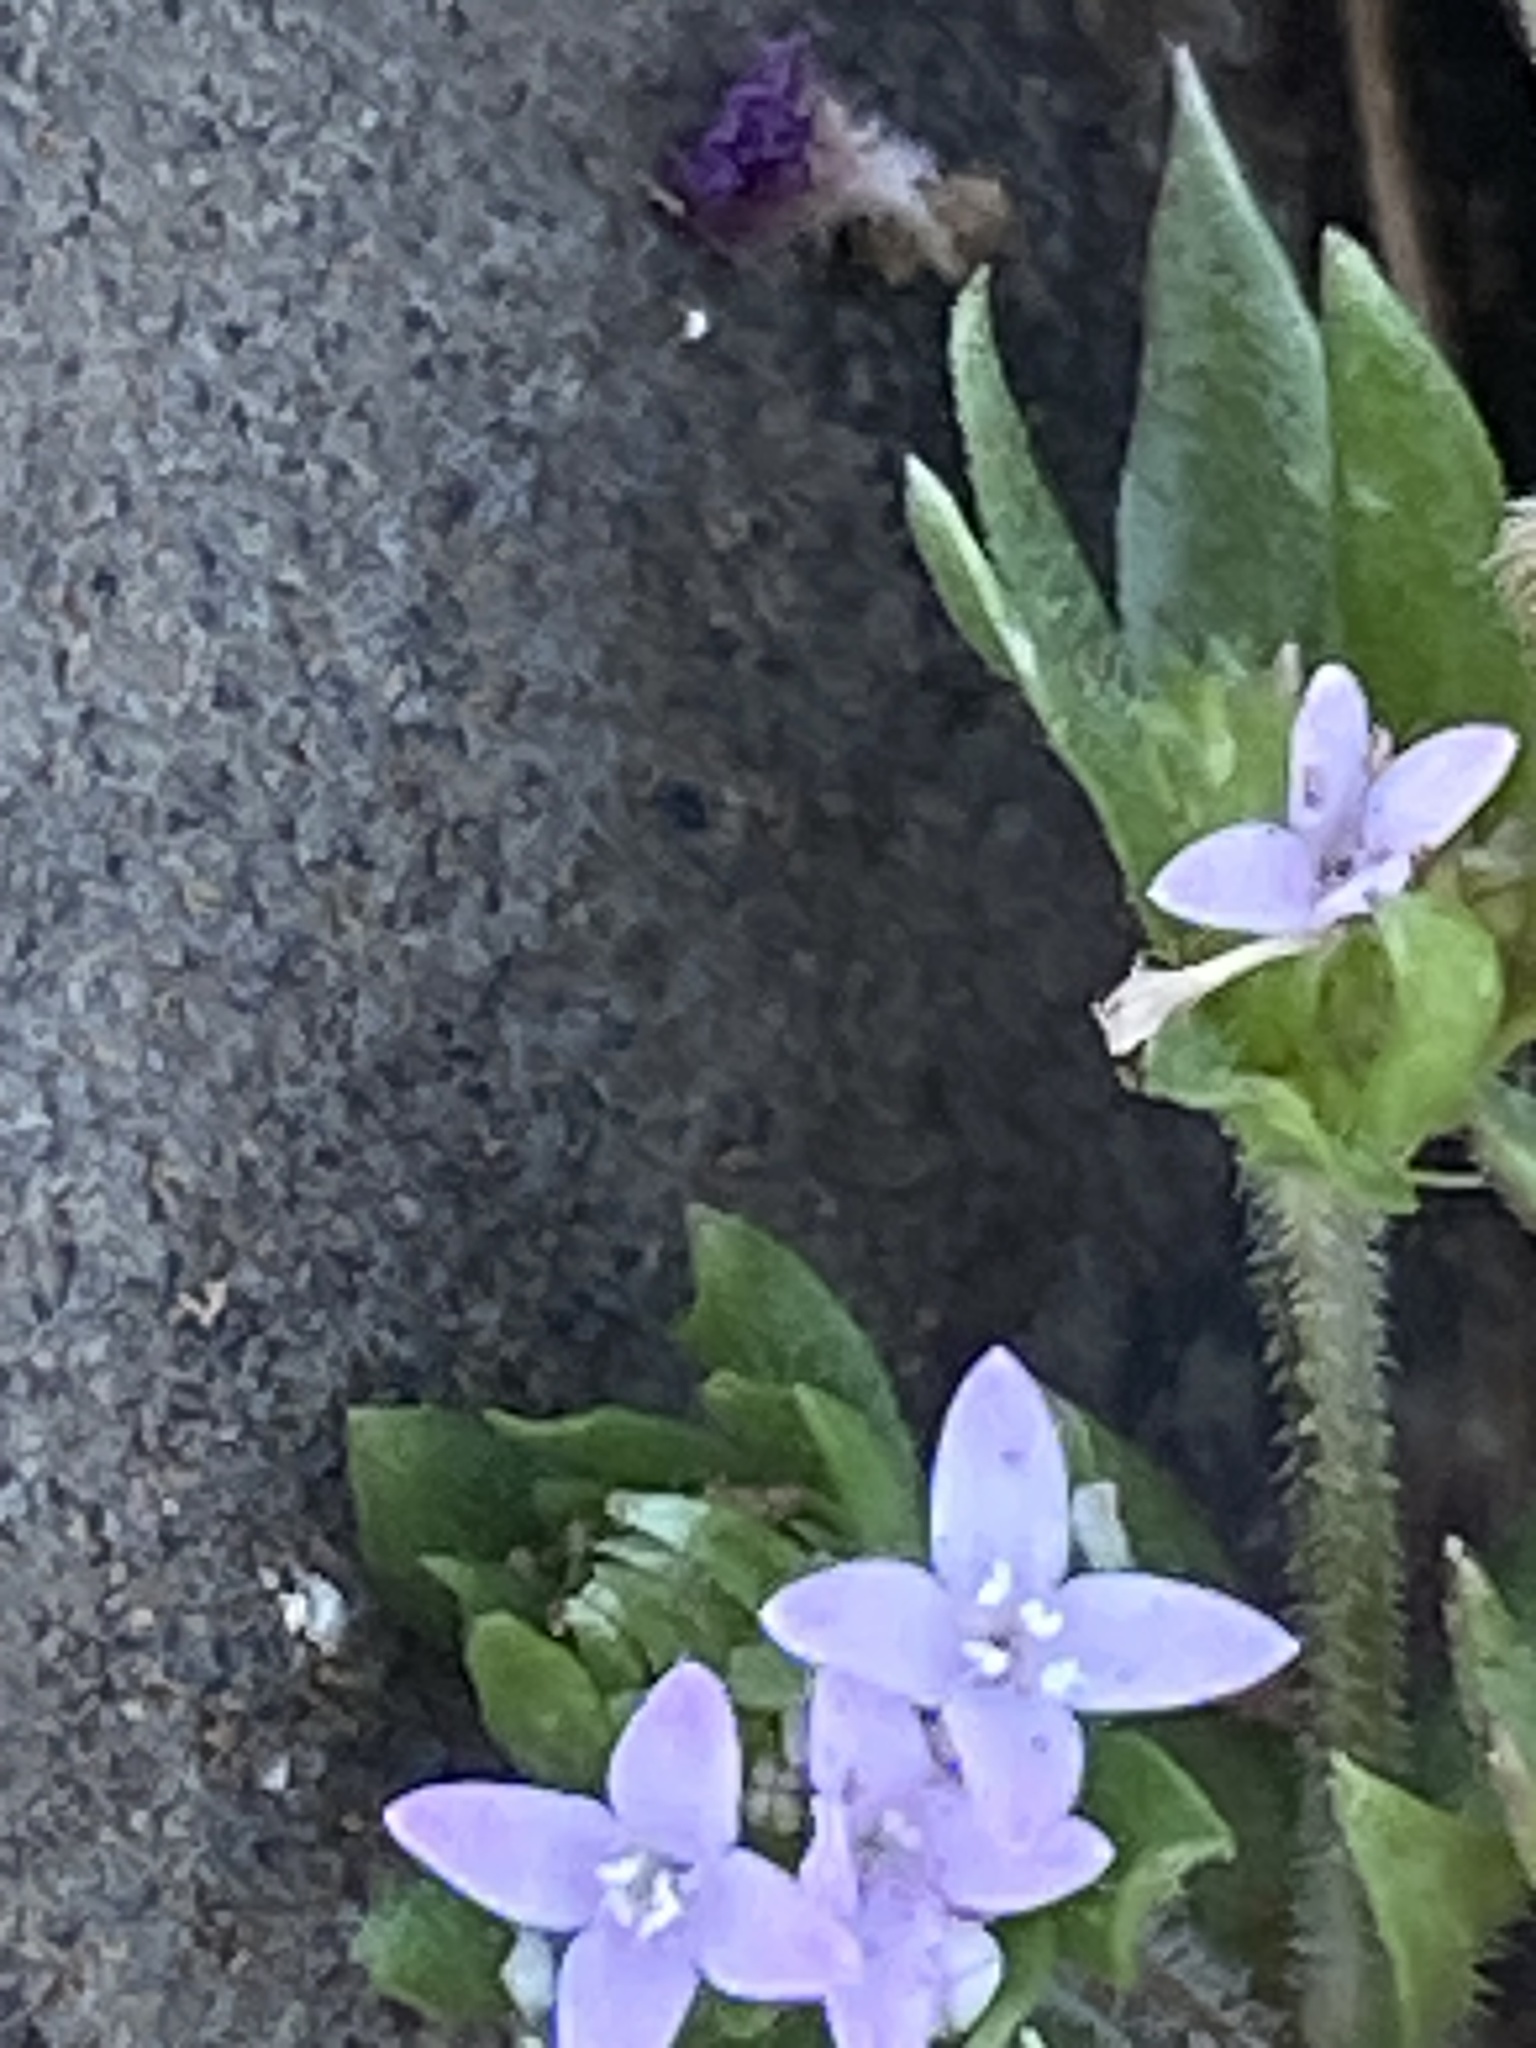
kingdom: Plantae
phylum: Tracheophyta
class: Magnoliopsida
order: Gentianales
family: Rubiaceae
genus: Sherardia
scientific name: Sherardia arvensis
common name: Field madder
